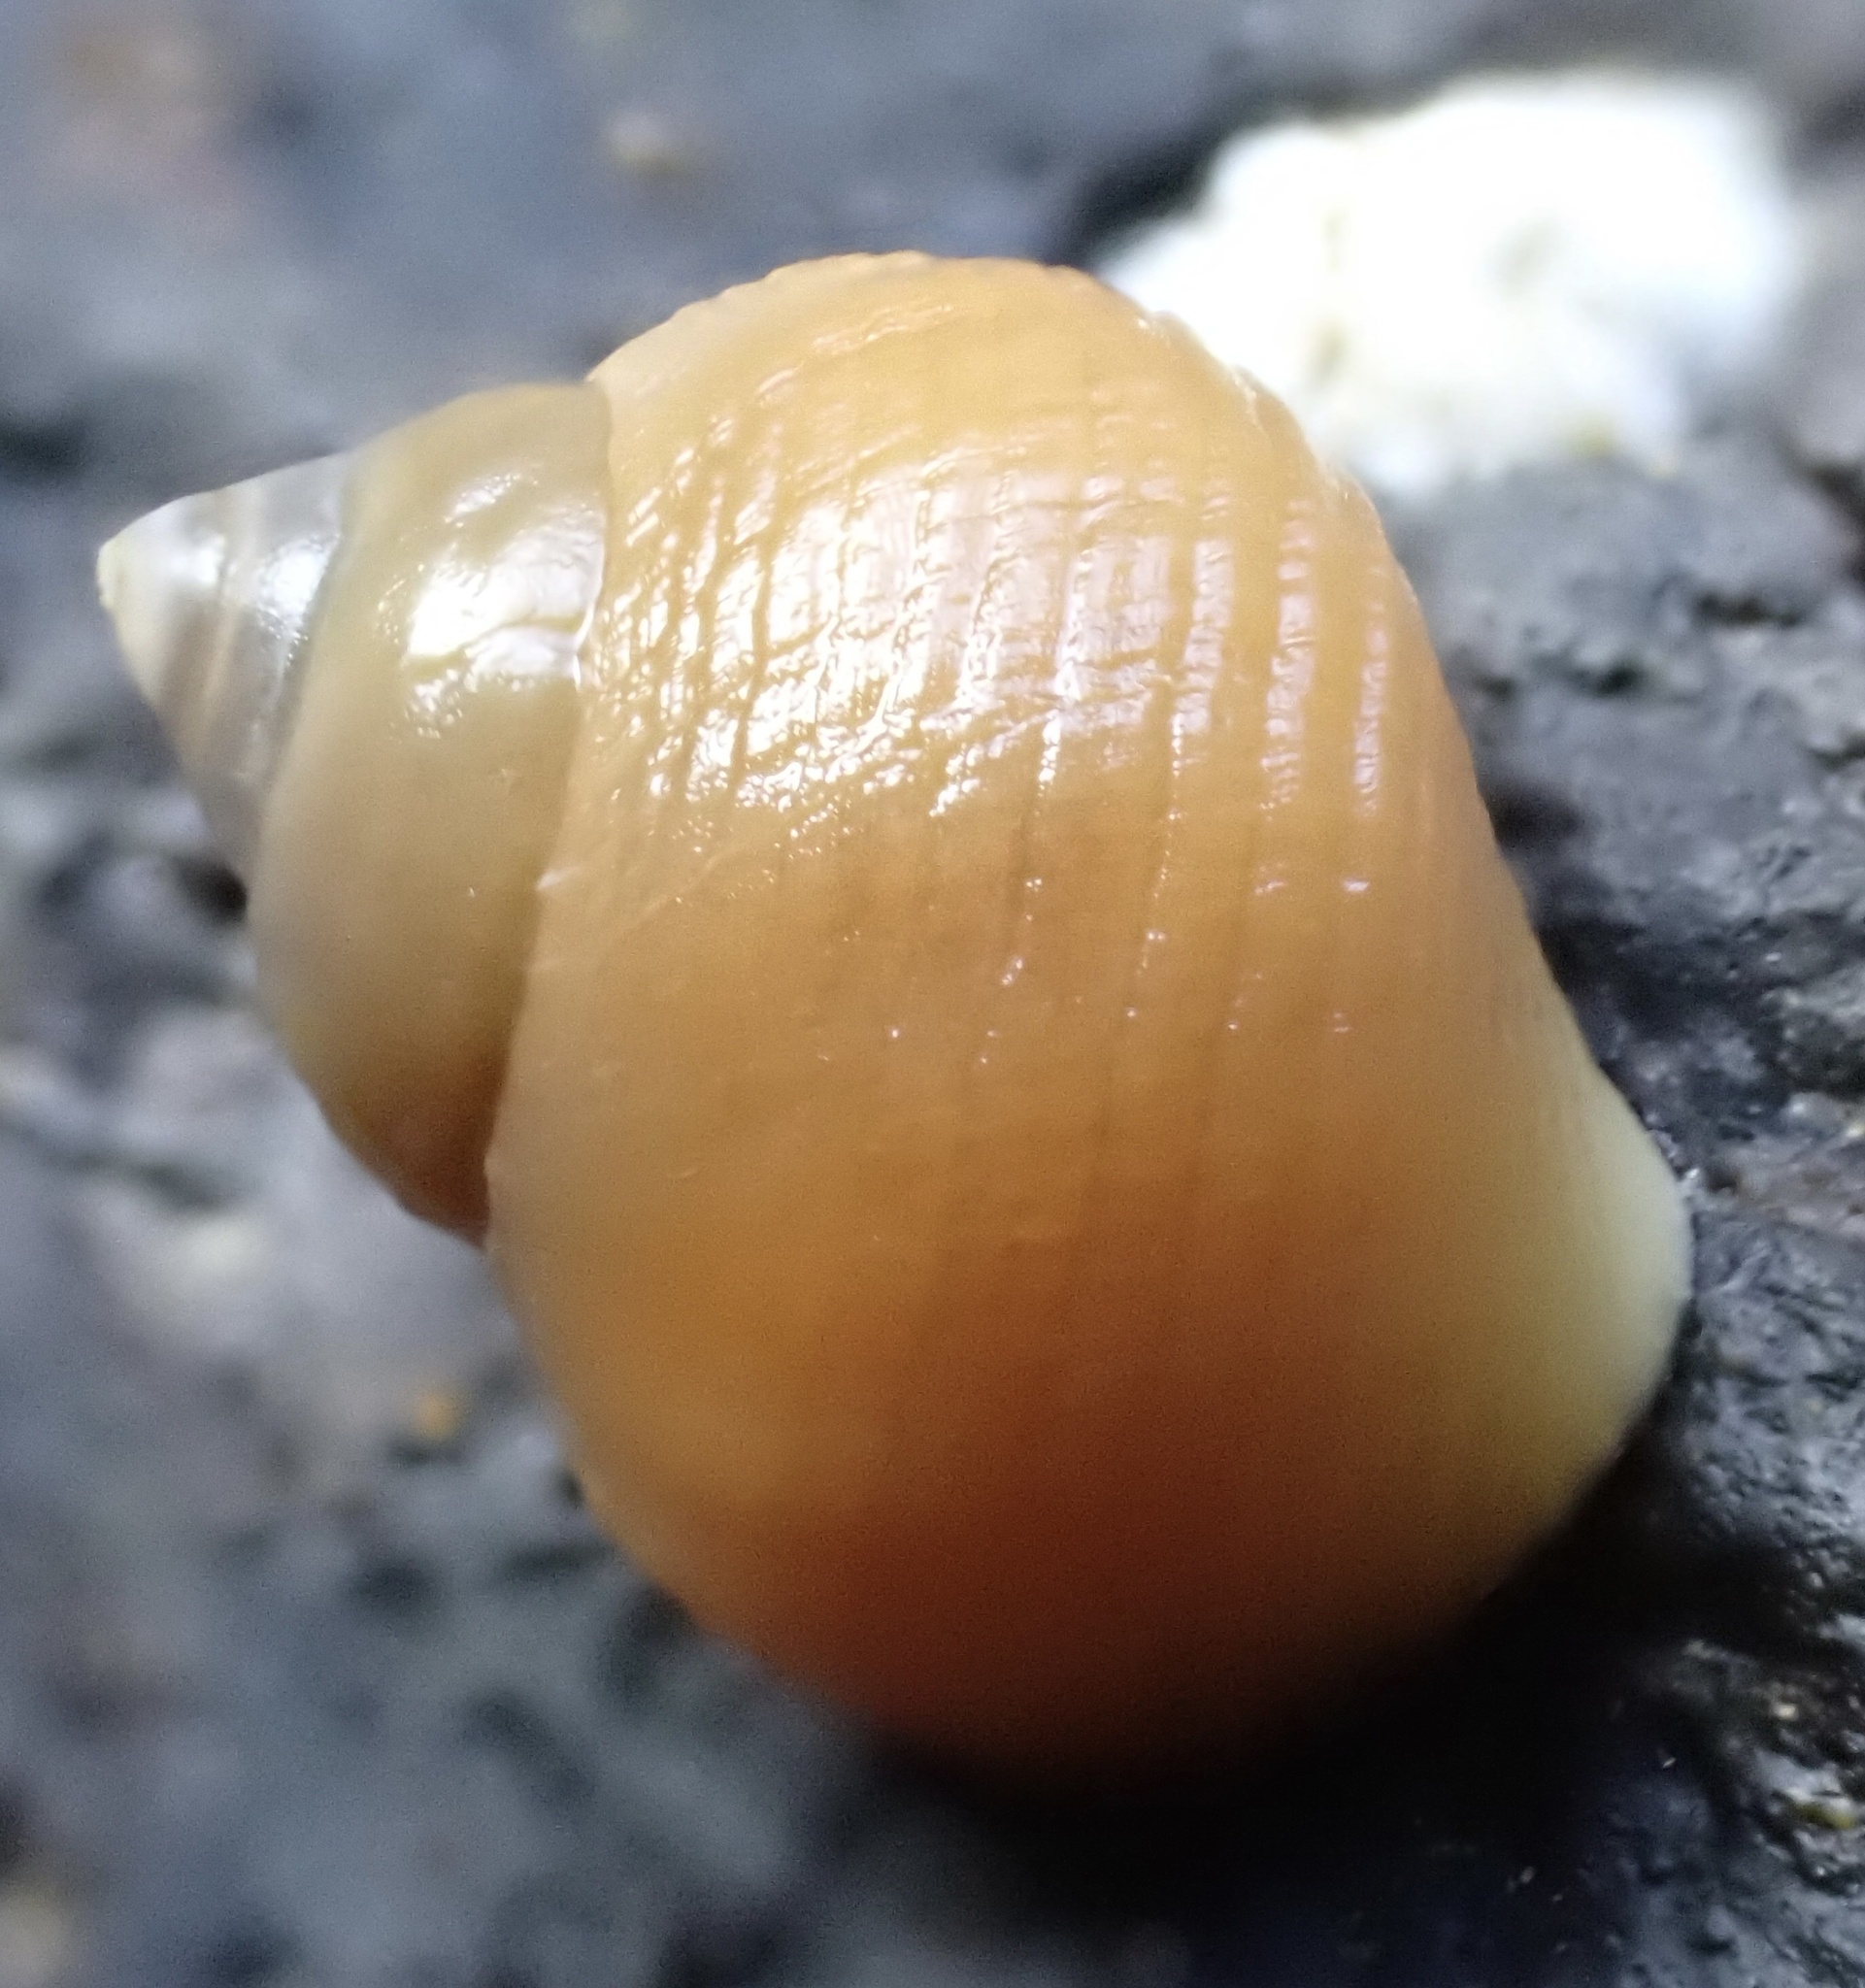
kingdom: Animalia
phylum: Mollusca
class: Gastropoda
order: Littorinimorpha
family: Littorinidae
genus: Littorina
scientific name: Littorina compressa
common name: Black-lined periwinkle
